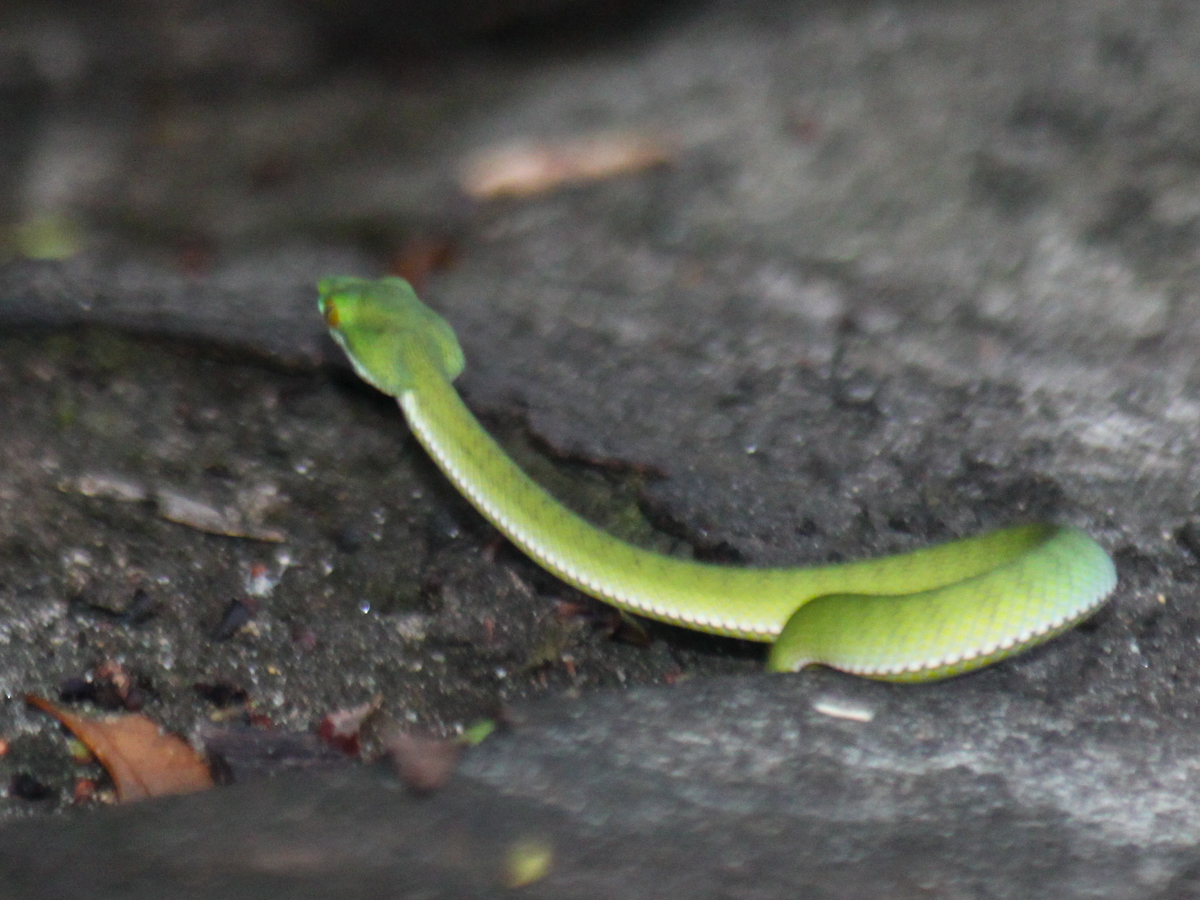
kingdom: Animalia
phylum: Chordata
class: Squamata
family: Viperidae
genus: Trimeresurus
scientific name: Trimeresurus cardamomensis
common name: Cardamom mountains green pitviper
